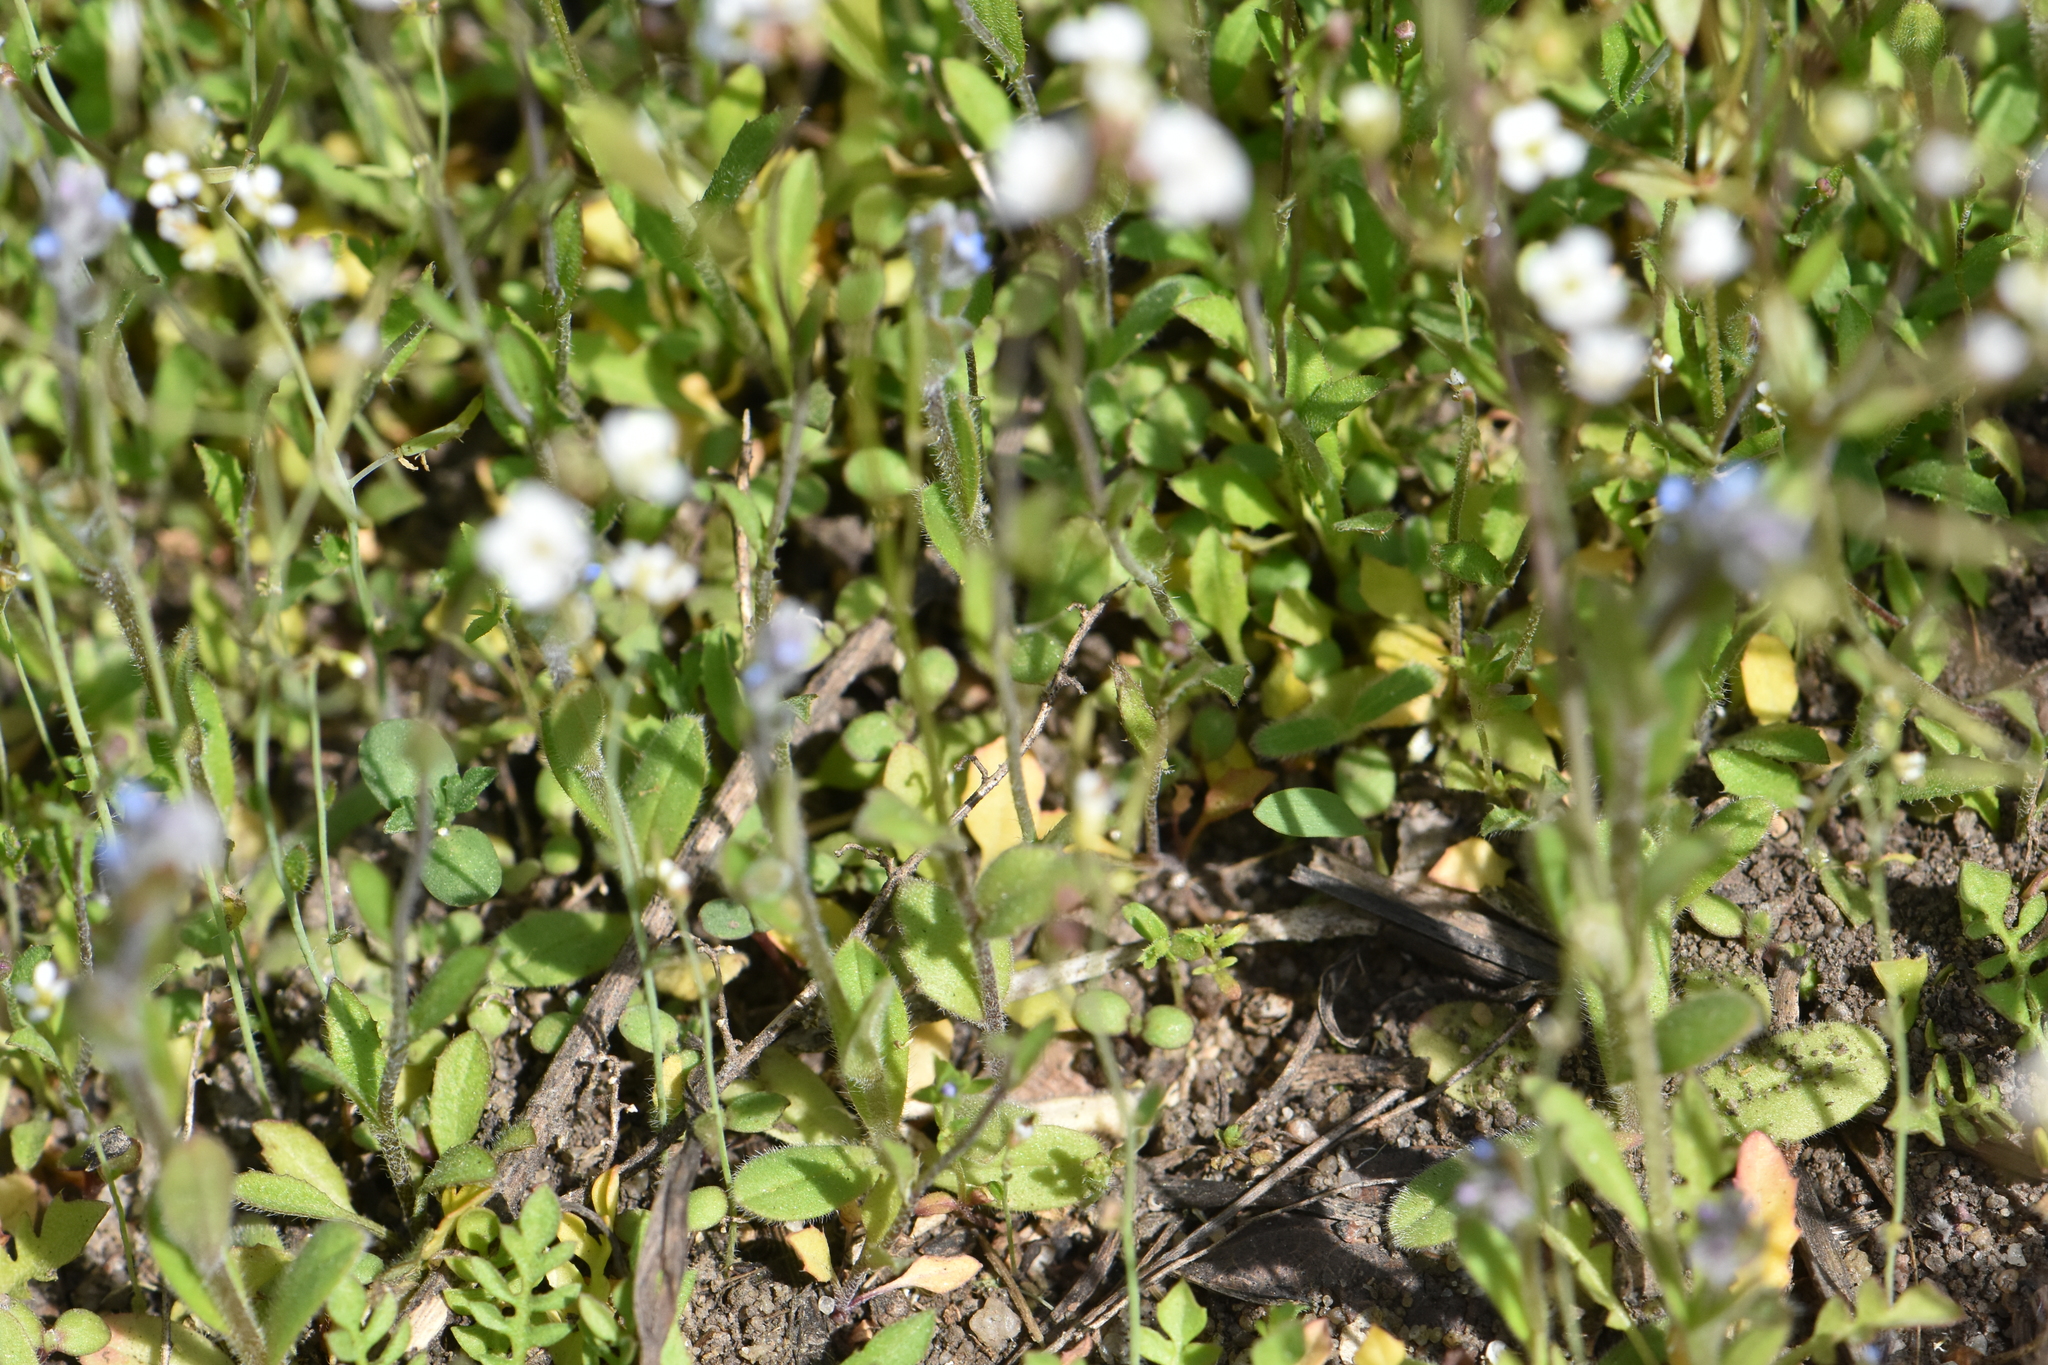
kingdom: Plantae
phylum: Tracheophyta
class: Magnoliopsida
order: Brassicales
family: Brassicaceae
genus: Arabidopsis
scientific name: Arabidopsis thaliana
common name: Thale cress
